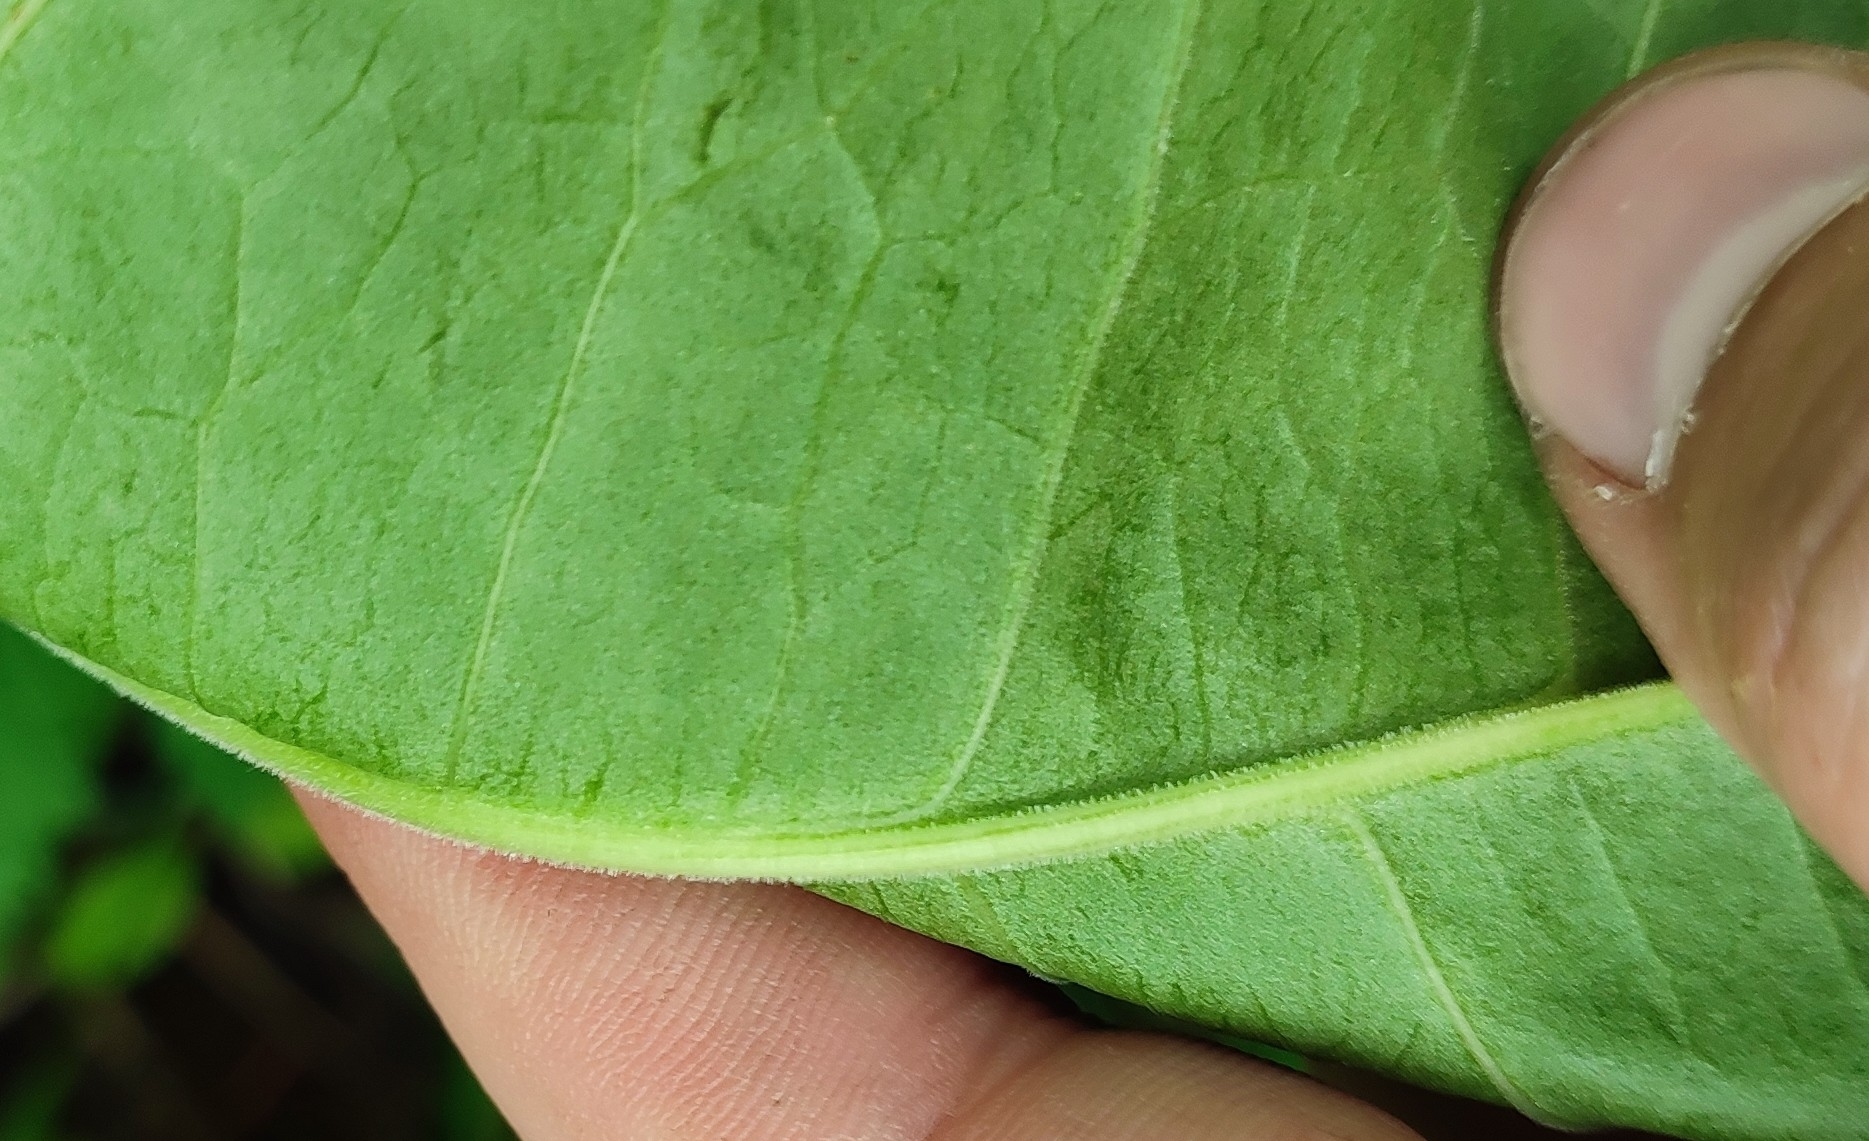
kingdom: Plantae
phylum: Tracheophyta
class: Magnoliopsida
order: Caryophyllales
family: Polygonaceae
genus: Rumex
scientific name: Rumex confertus
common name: Russian dock
